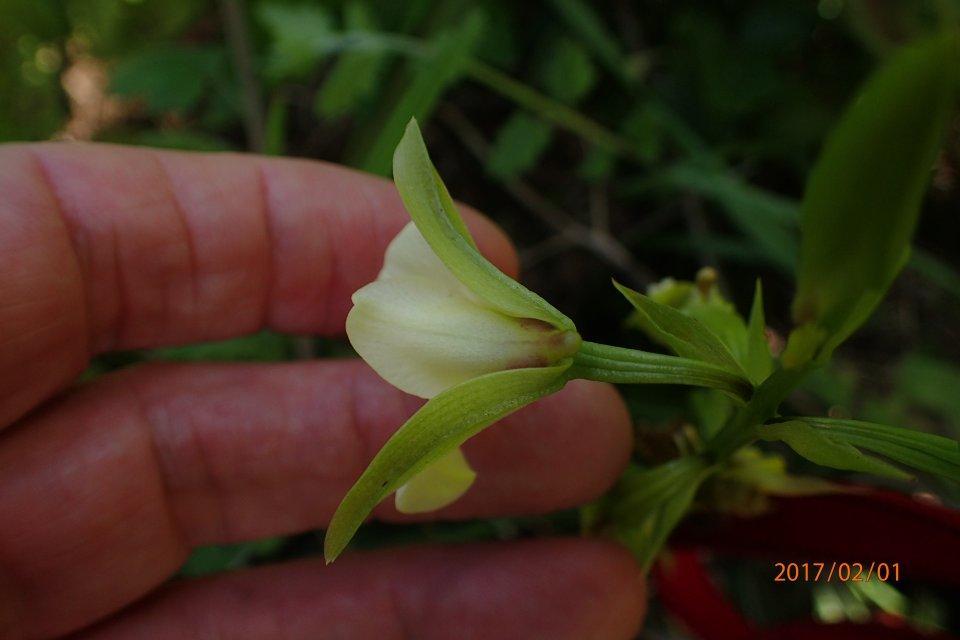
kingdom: Plantae
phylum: Tracheophyta
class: Liliopsida
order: Asparagales
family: Orchidaceae
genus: Eulophia
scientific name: Eulophia parvilabris
